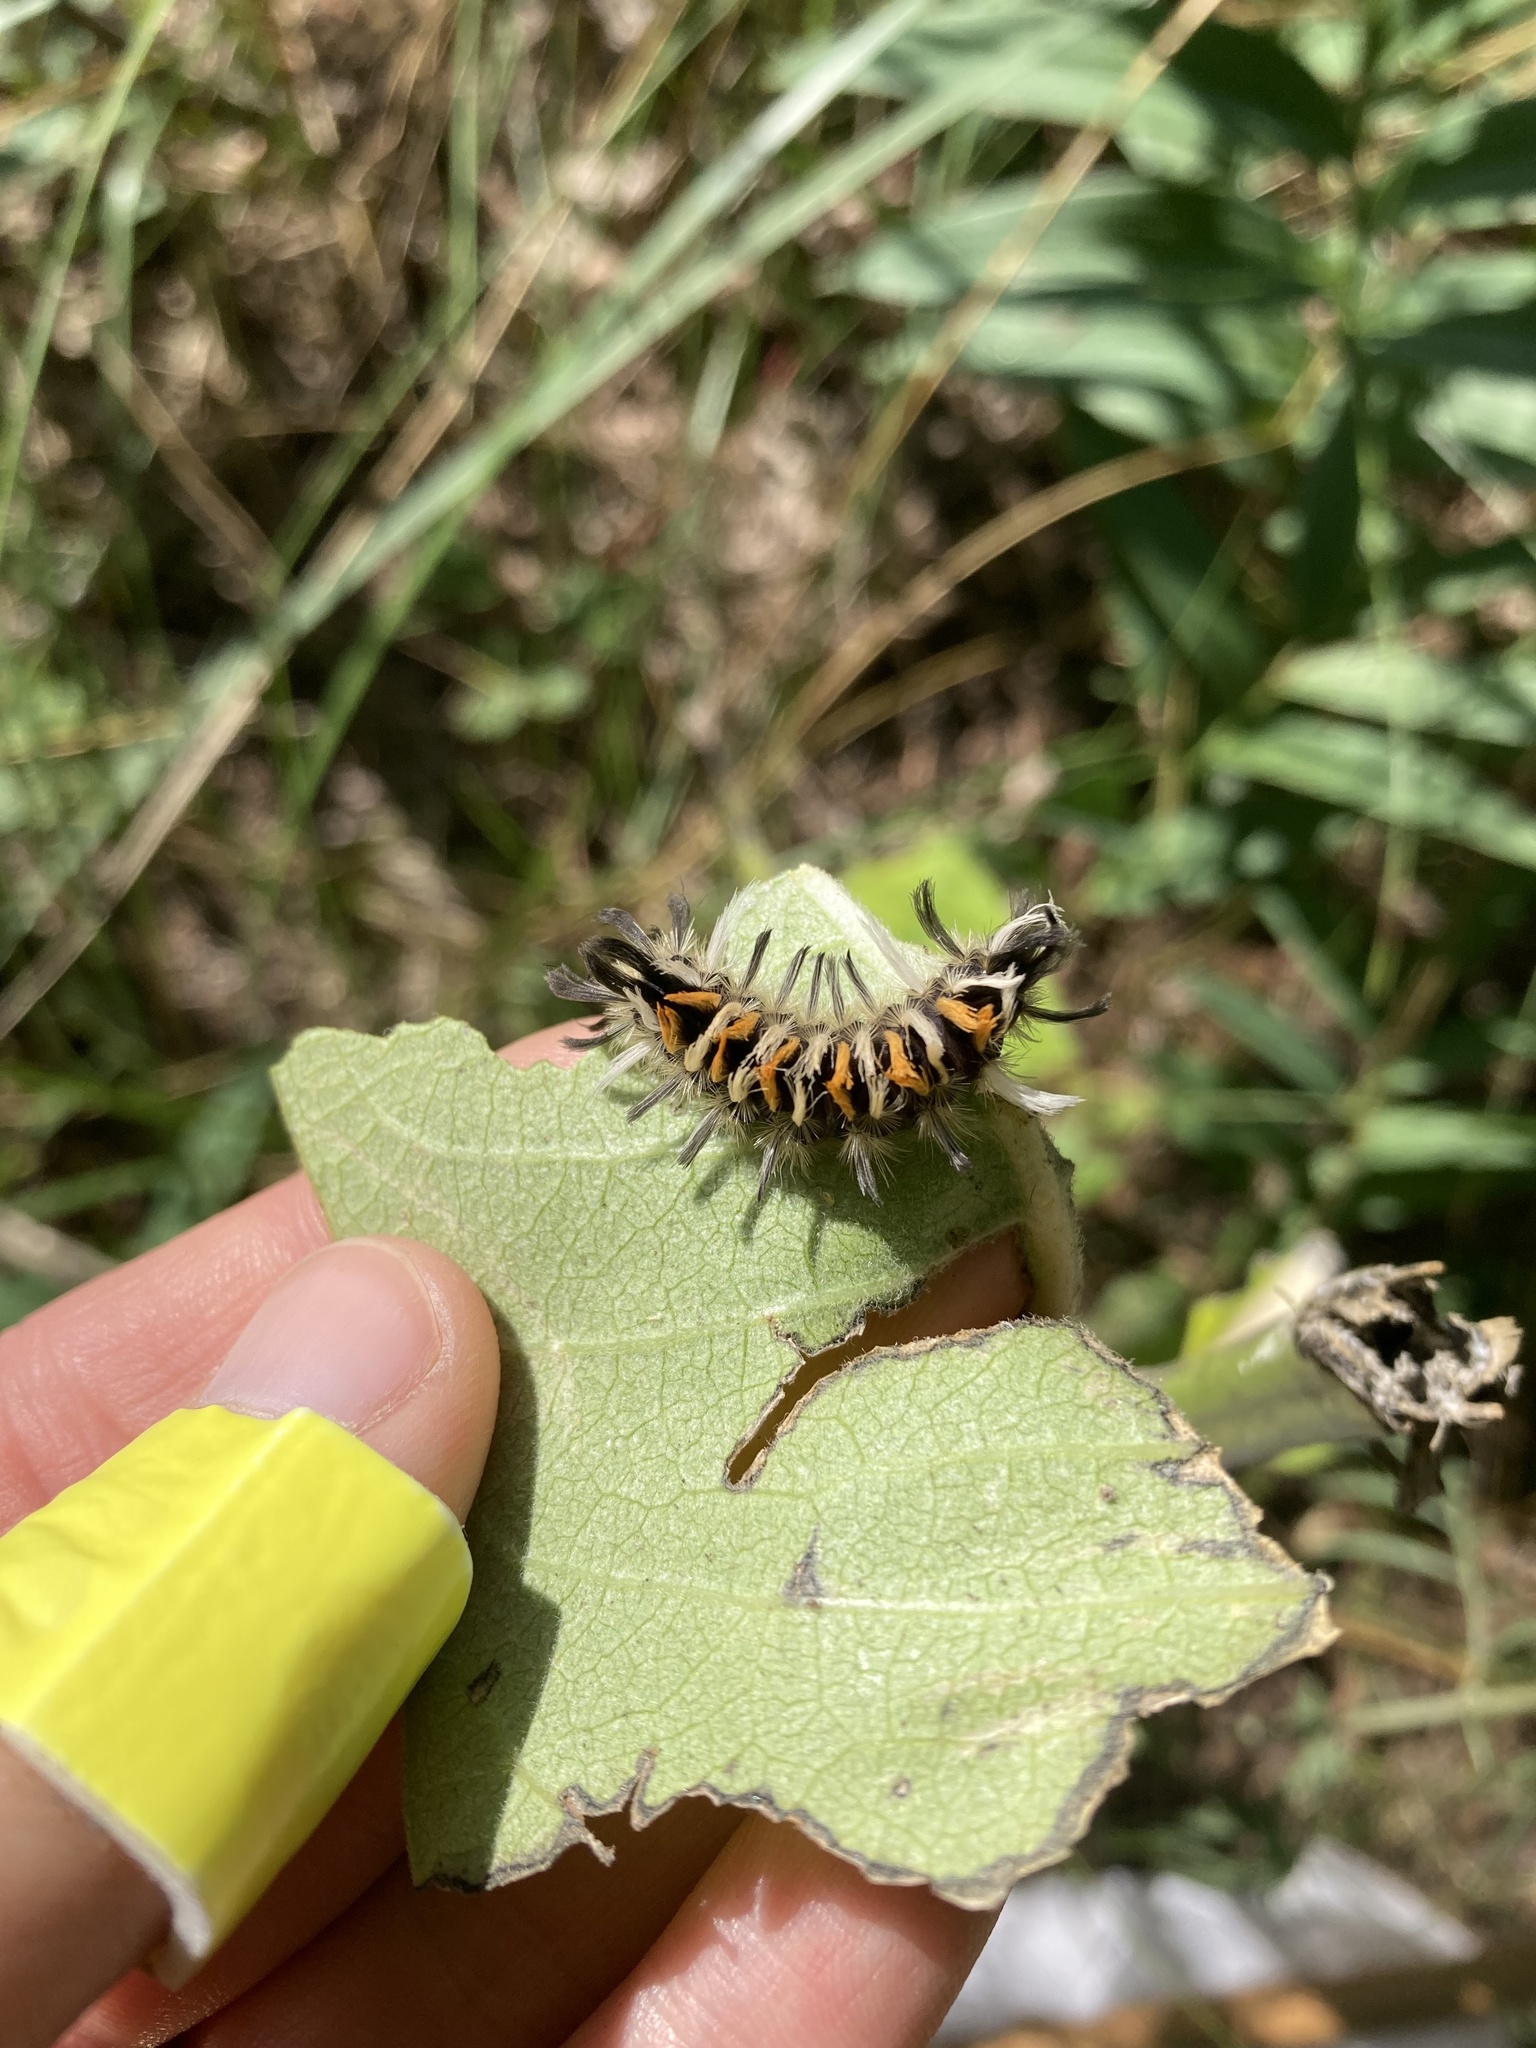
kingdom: Animalia
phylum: Arthropoda
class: Insecta
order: Lepidoptera
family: Erebidae
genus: Euchaetes
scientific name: Euchaetes egle
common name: Milkweed tussock moth
